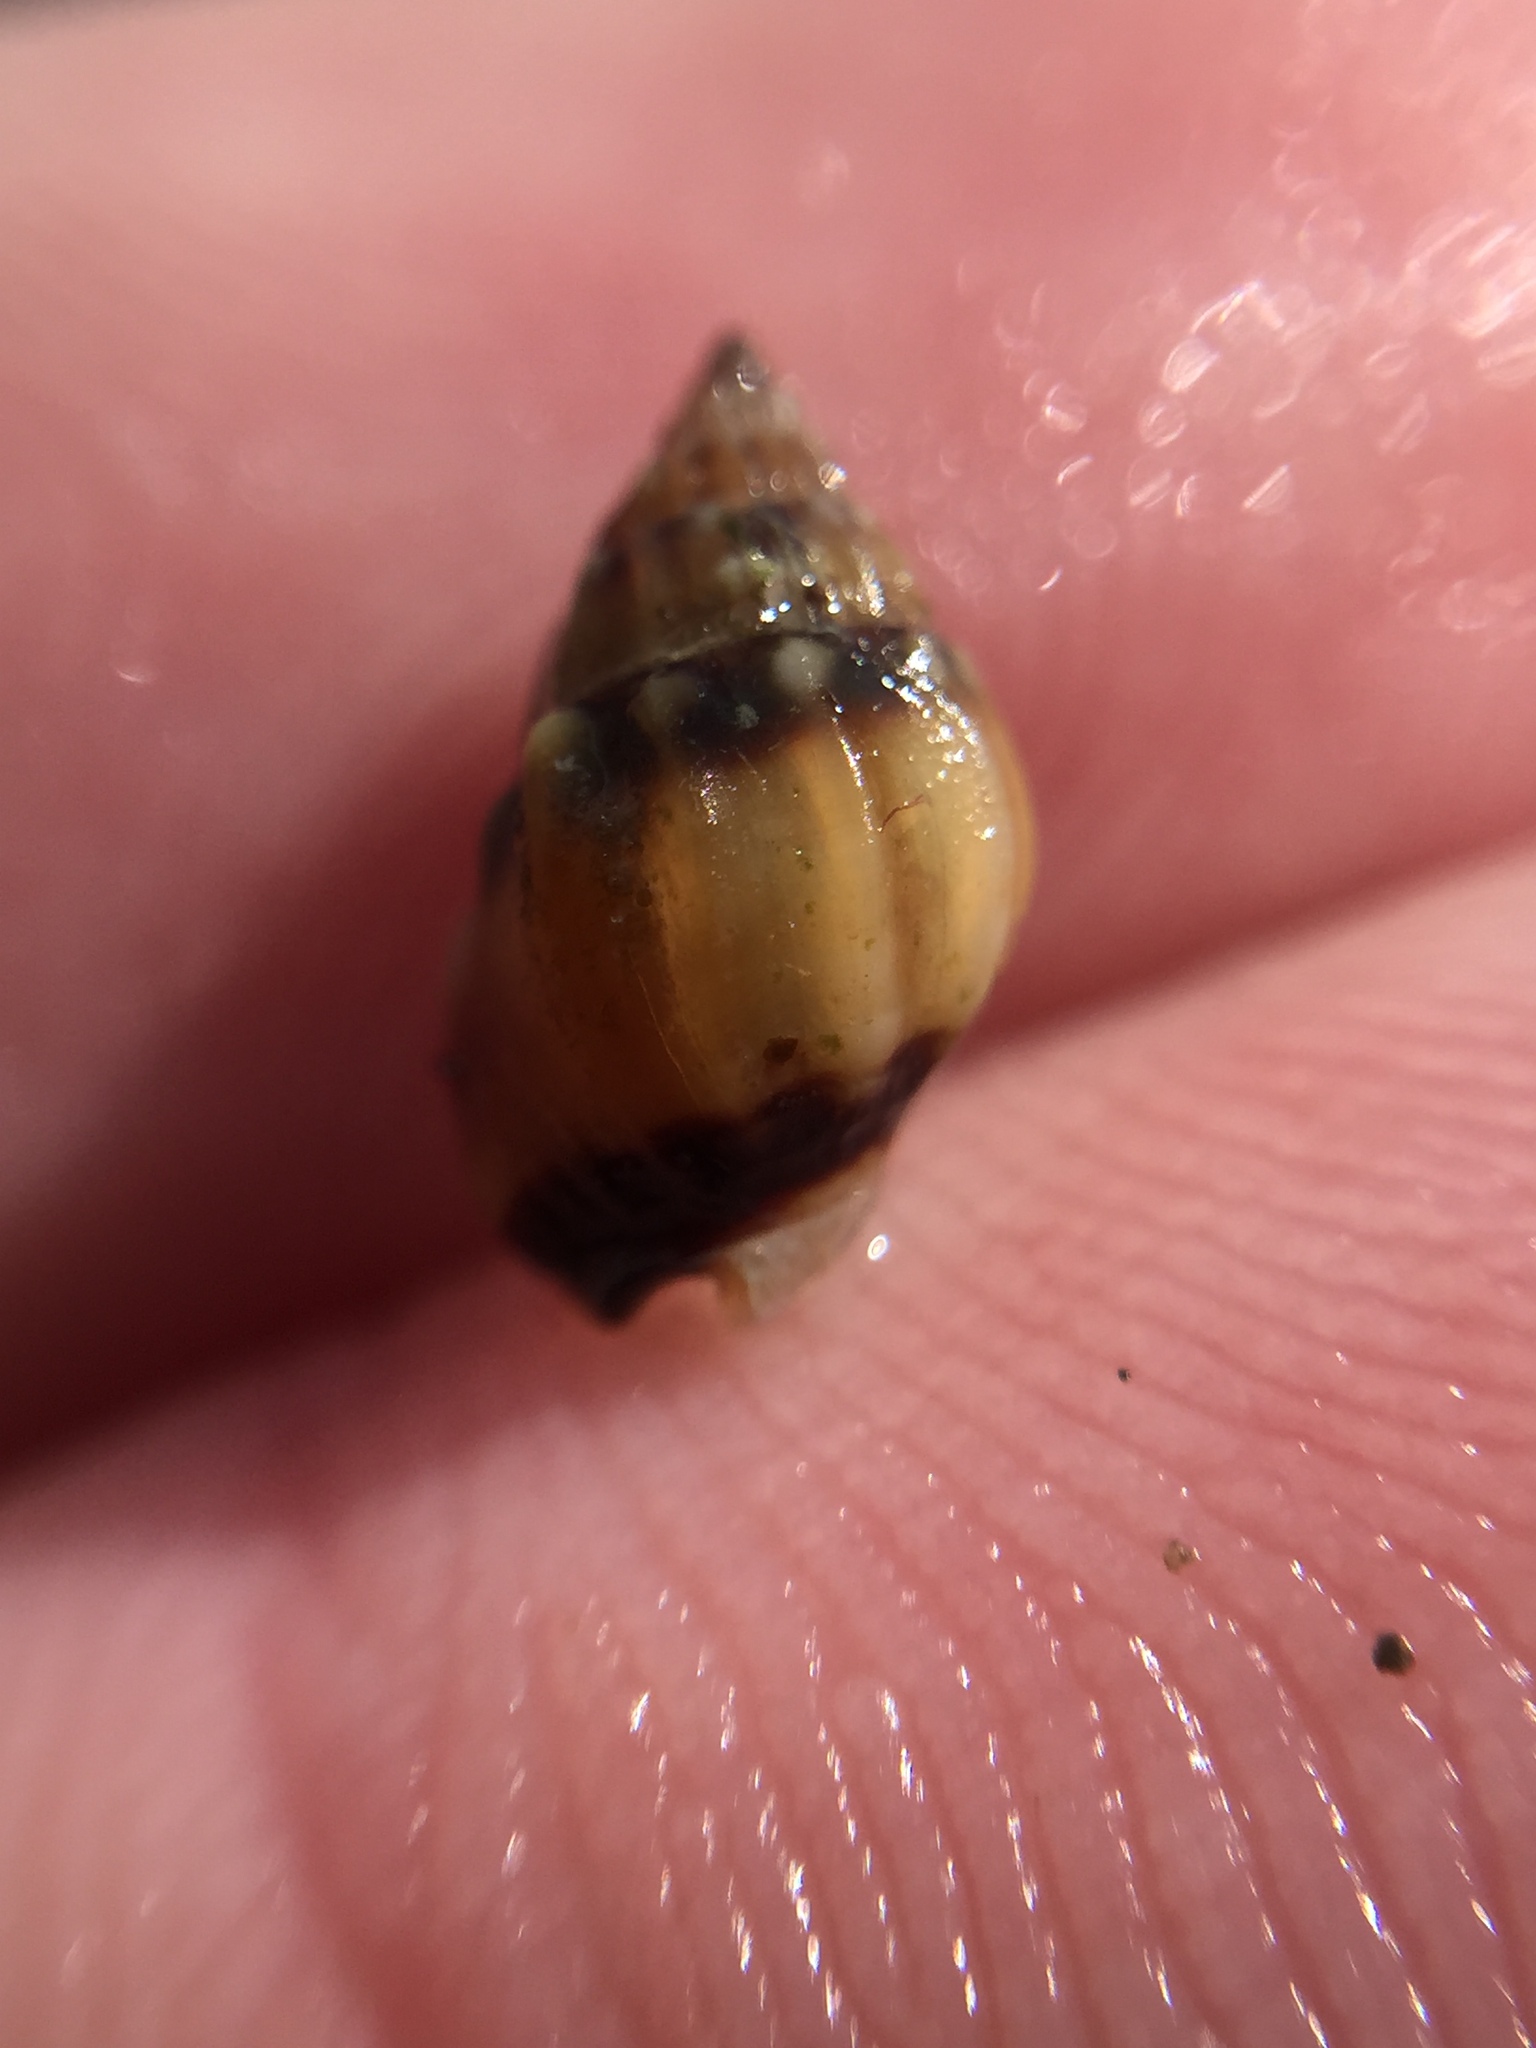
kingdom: Animalia
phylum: Mollusca
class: Gastropoda
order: Neogastropoda
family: Nassariidae
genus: Tritia
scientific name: Tritia burchardi
